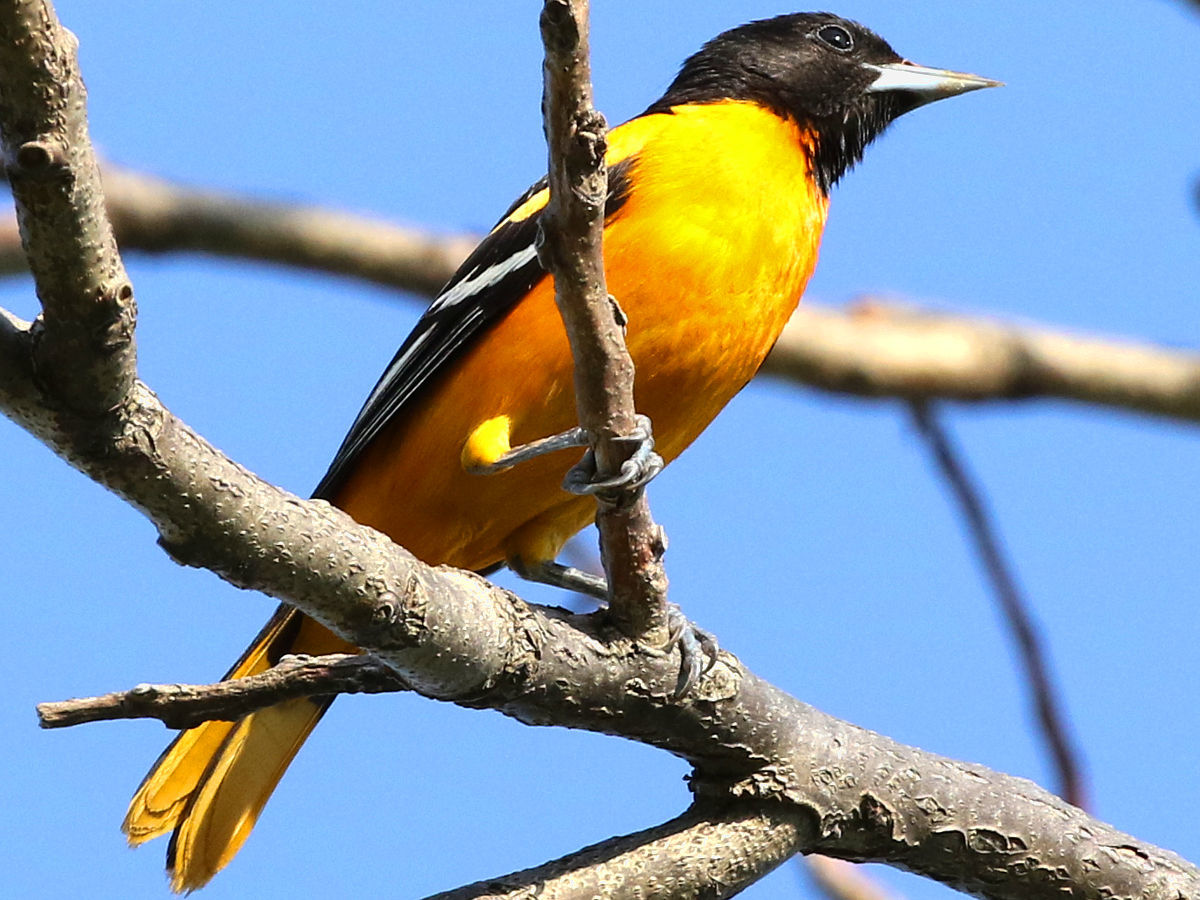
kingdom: Animalia
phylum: Chordata
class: Aves
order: Passeriformes
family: Icteridae
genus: Icterus
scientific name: Icterus galbula
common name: Baltimore oriole
